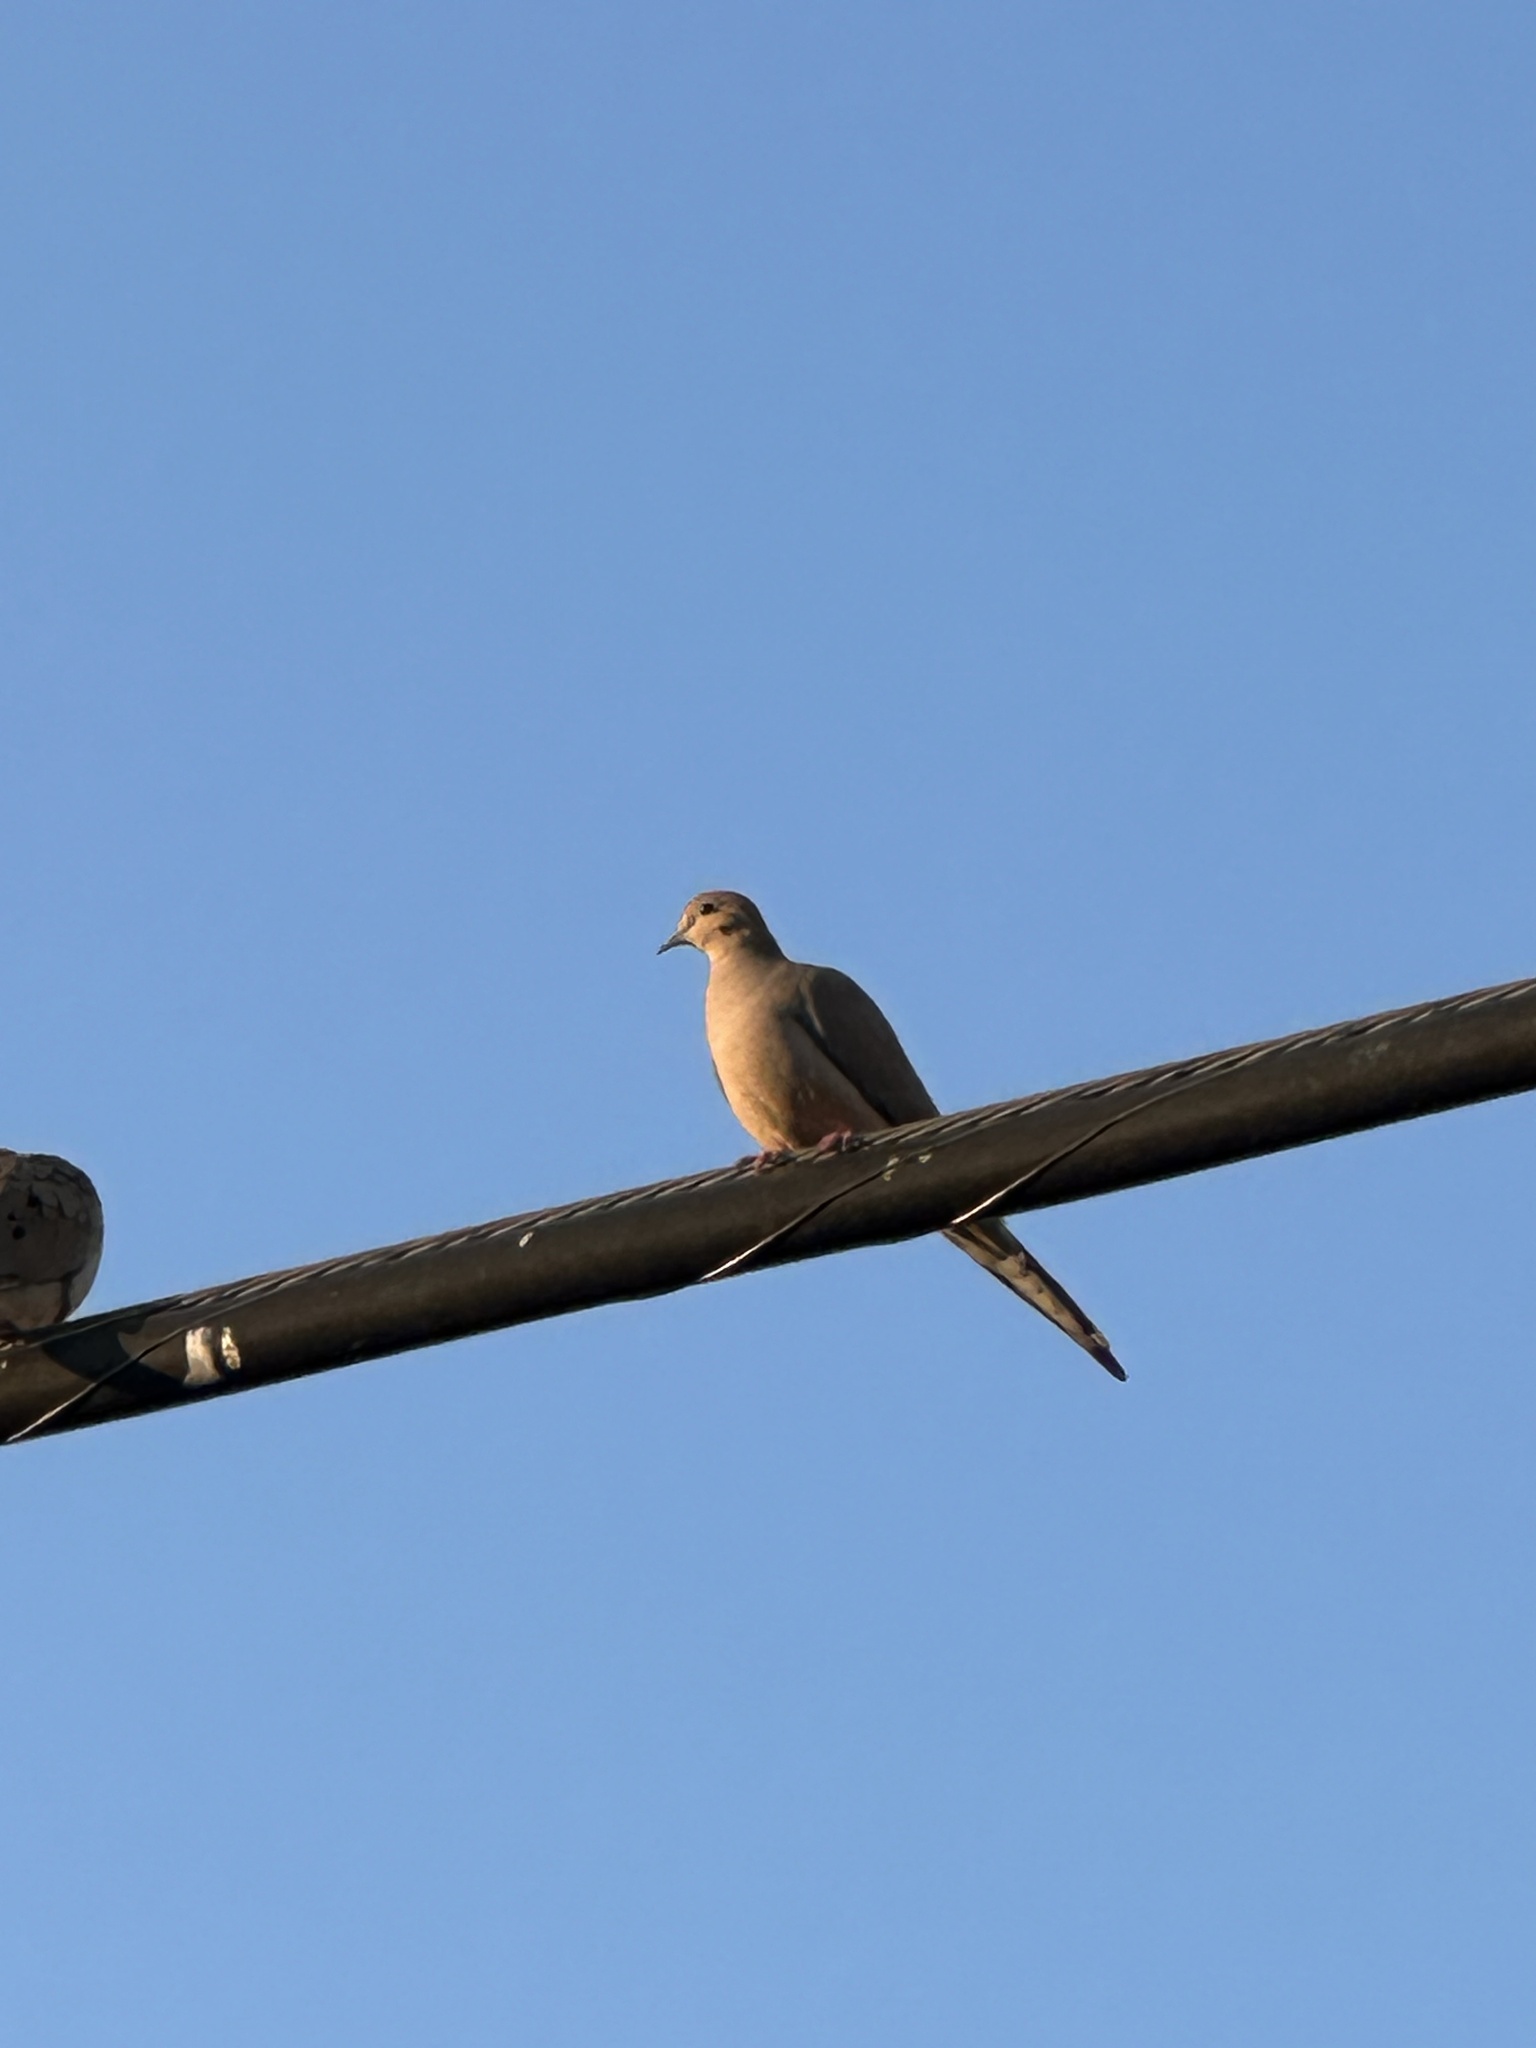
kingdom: Animalia
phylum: Chordata
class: Aves
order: Columbiformes
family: Columbidae
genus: Zenaida
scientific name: Zenaida macroura
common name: Mourning dove
